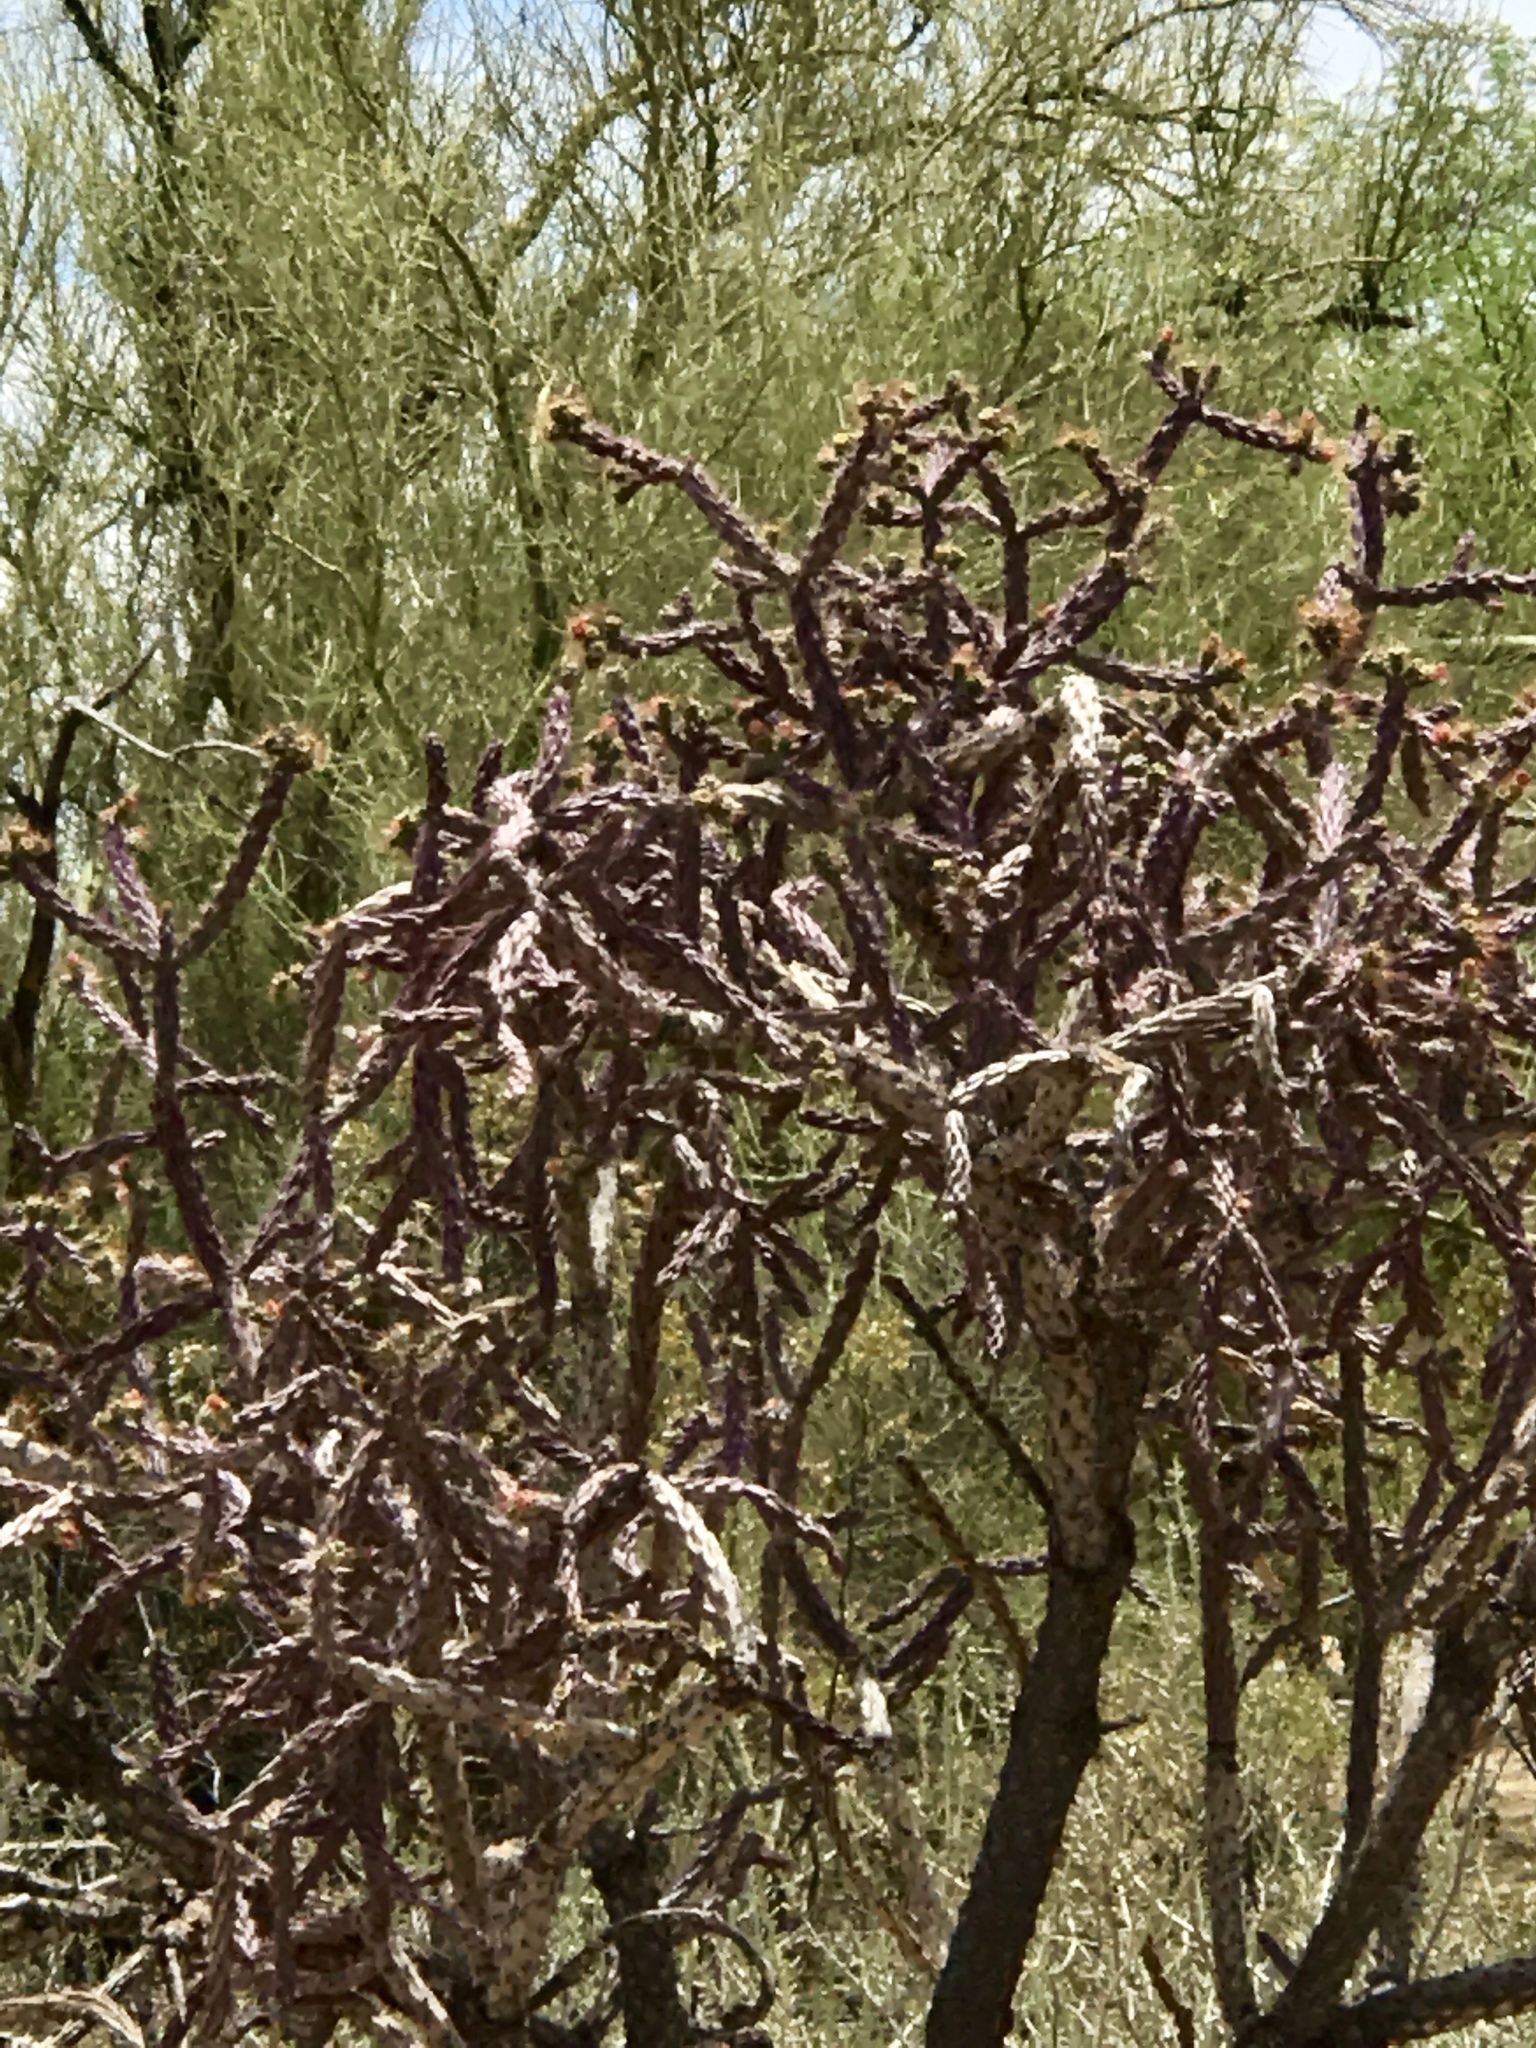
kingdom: Plantae
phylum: Tracheophyta
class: Magnoliopsida
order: Caryophyllales
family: Cactaceae
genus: Cylindropuntia
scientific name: Cylindropuntia thurberi
